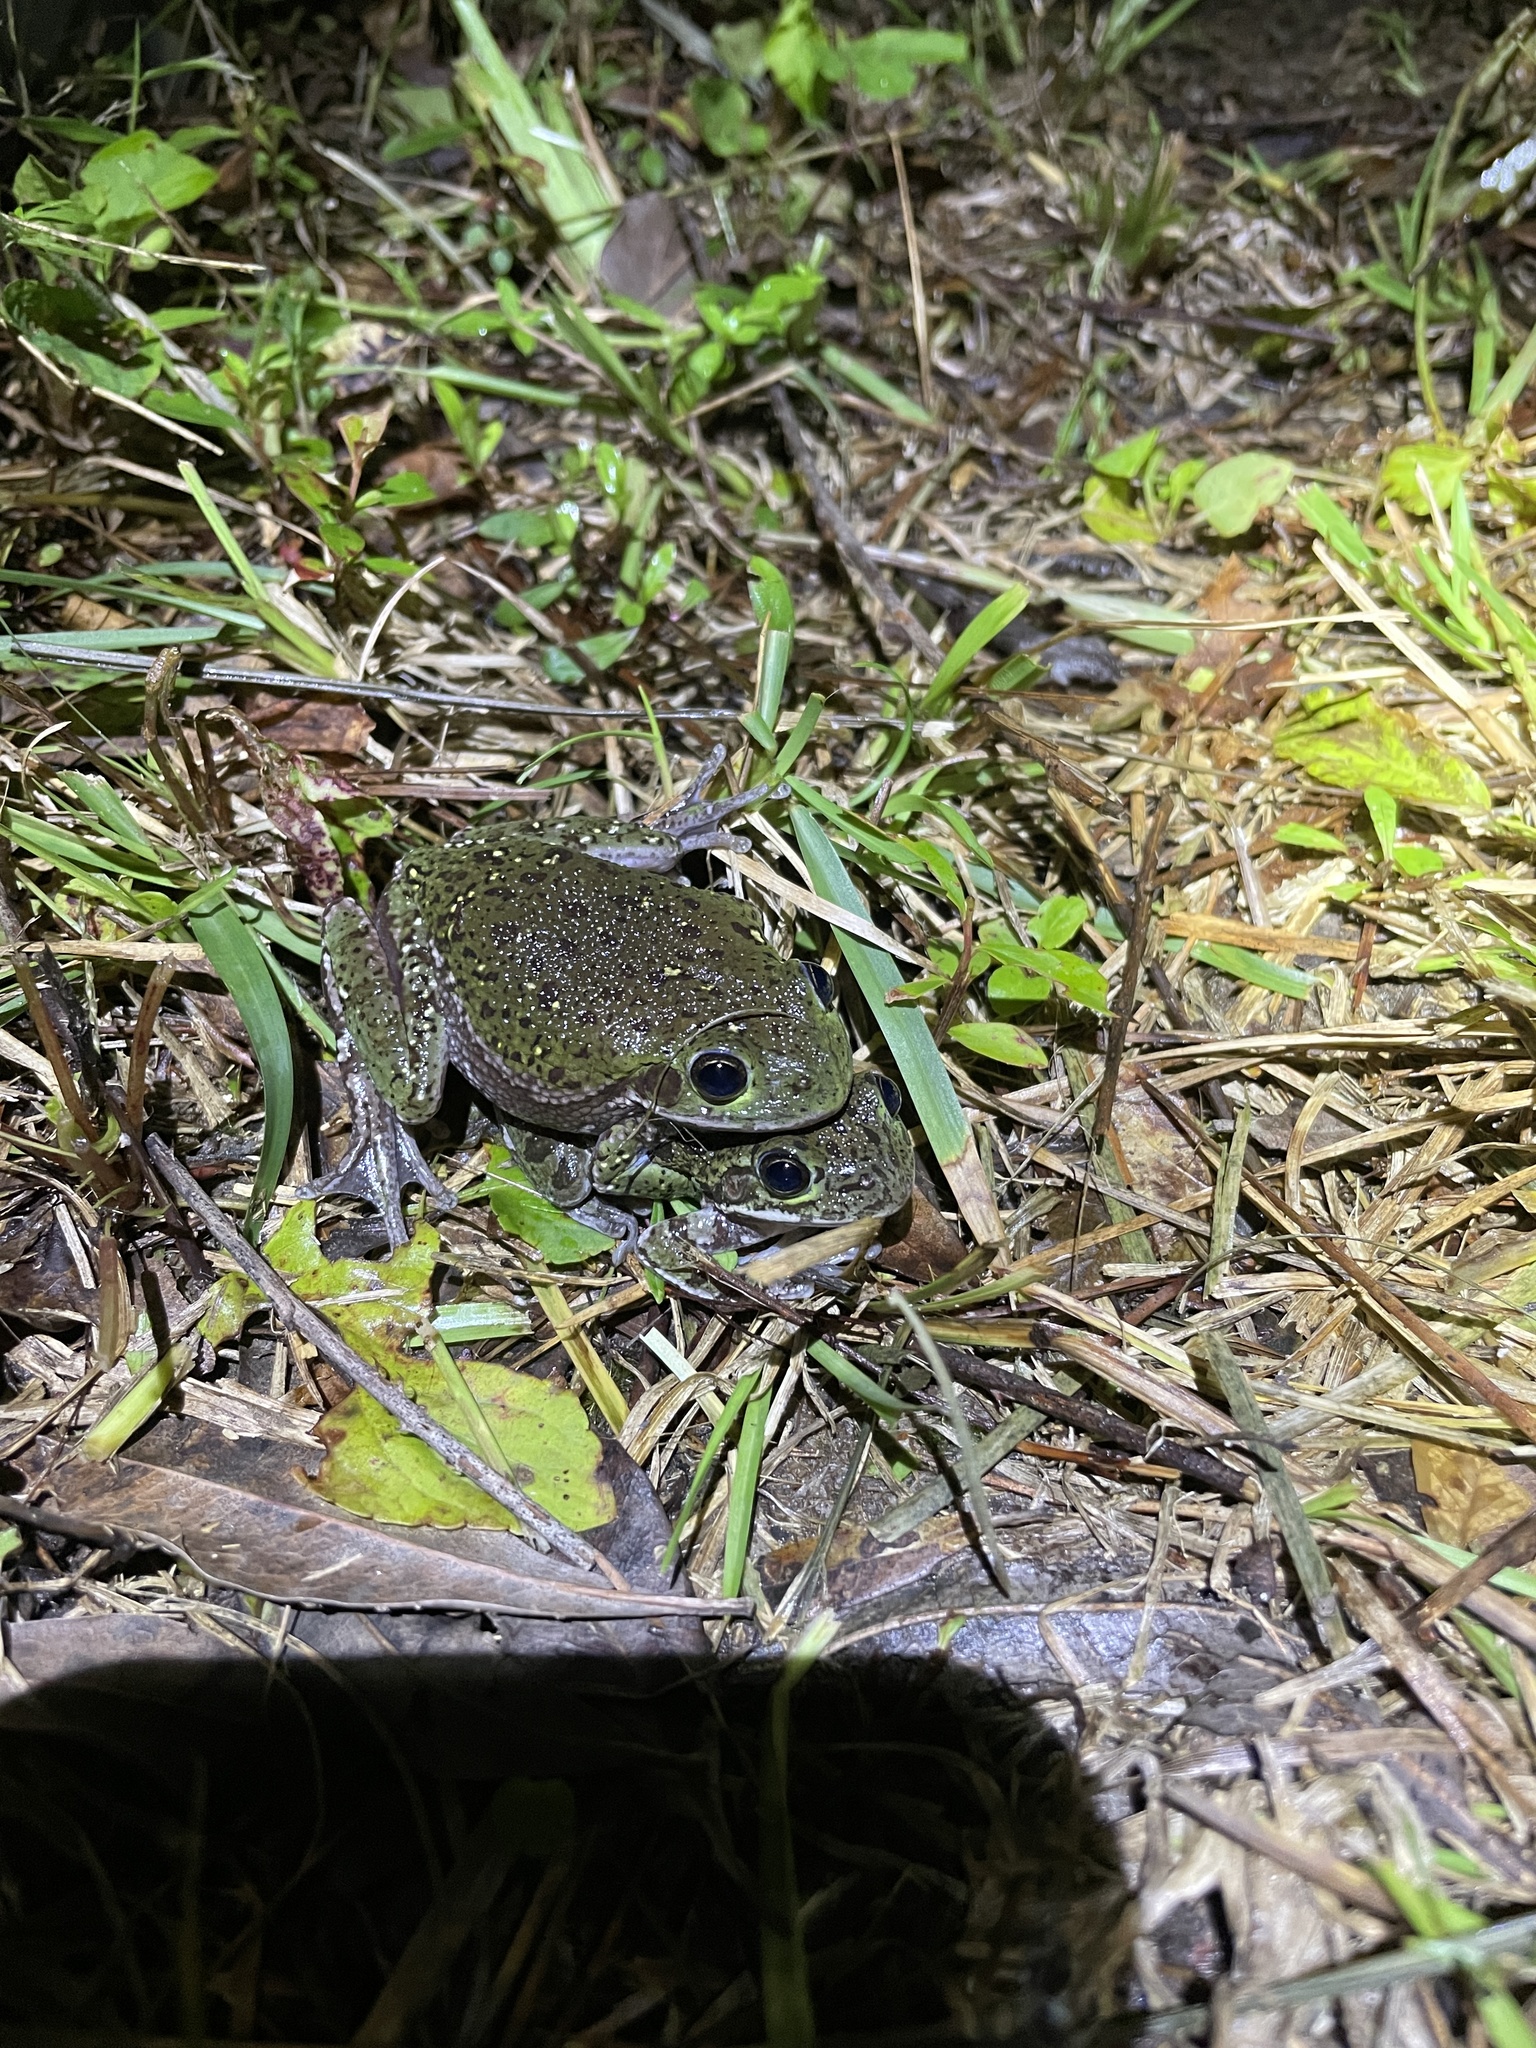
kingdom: Animalia
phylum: Chordata
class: Amphibia
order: Anura
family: Hylidae
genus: Dryophytes
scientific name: Dryophytes gratiosus
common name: Barking treefrog
